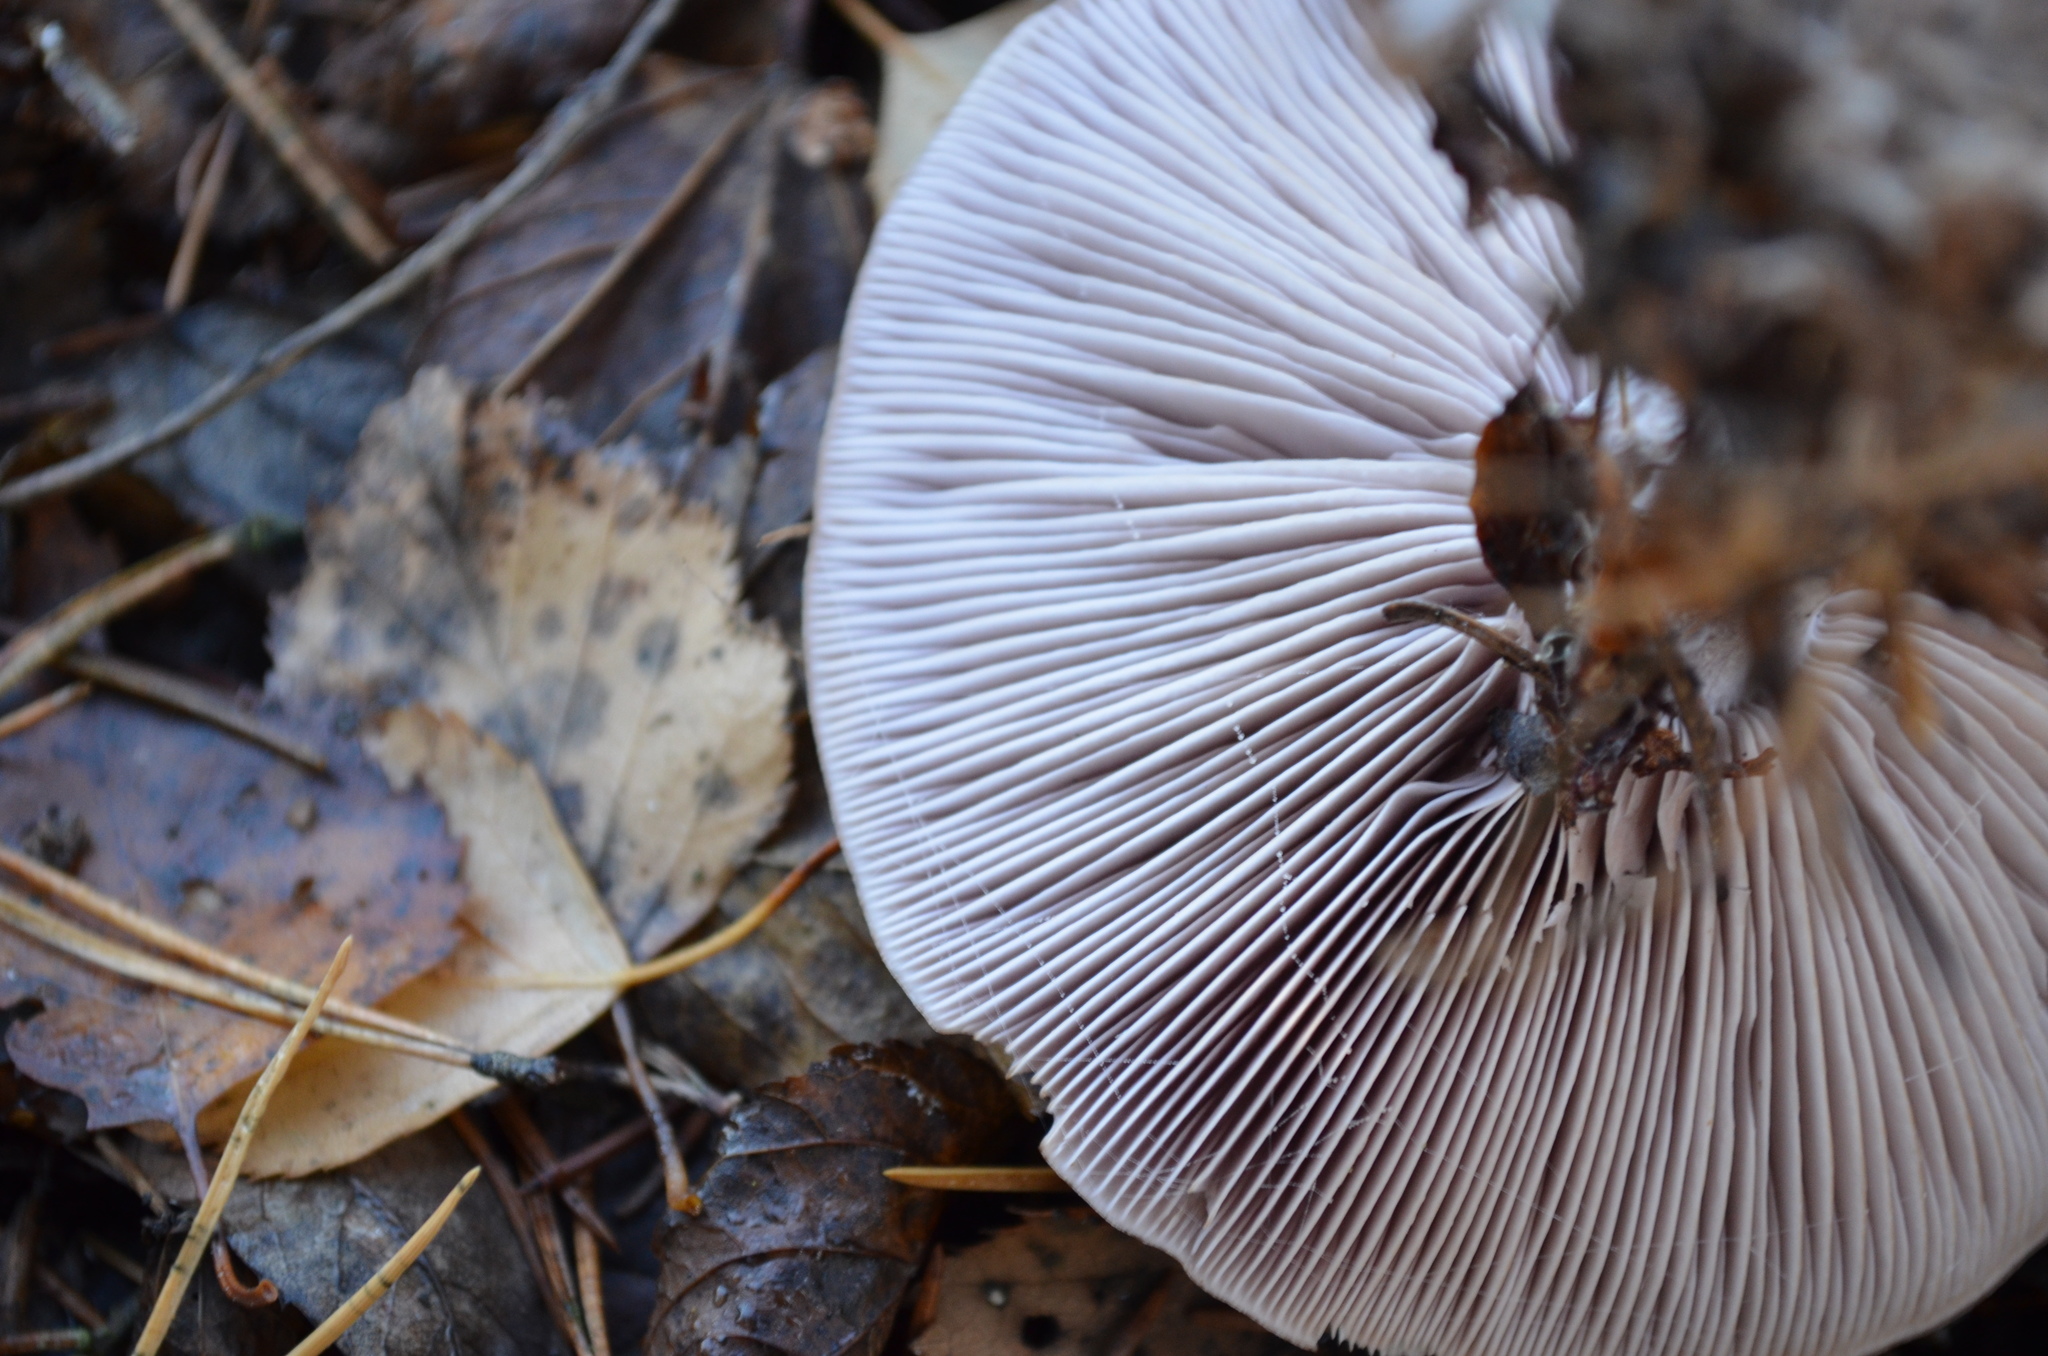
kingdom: Fungi
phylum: Basidiomycota
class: Agaricomycetes
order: Agaricales
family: Tricholomataceae
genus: Collybia
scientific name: Collybia
